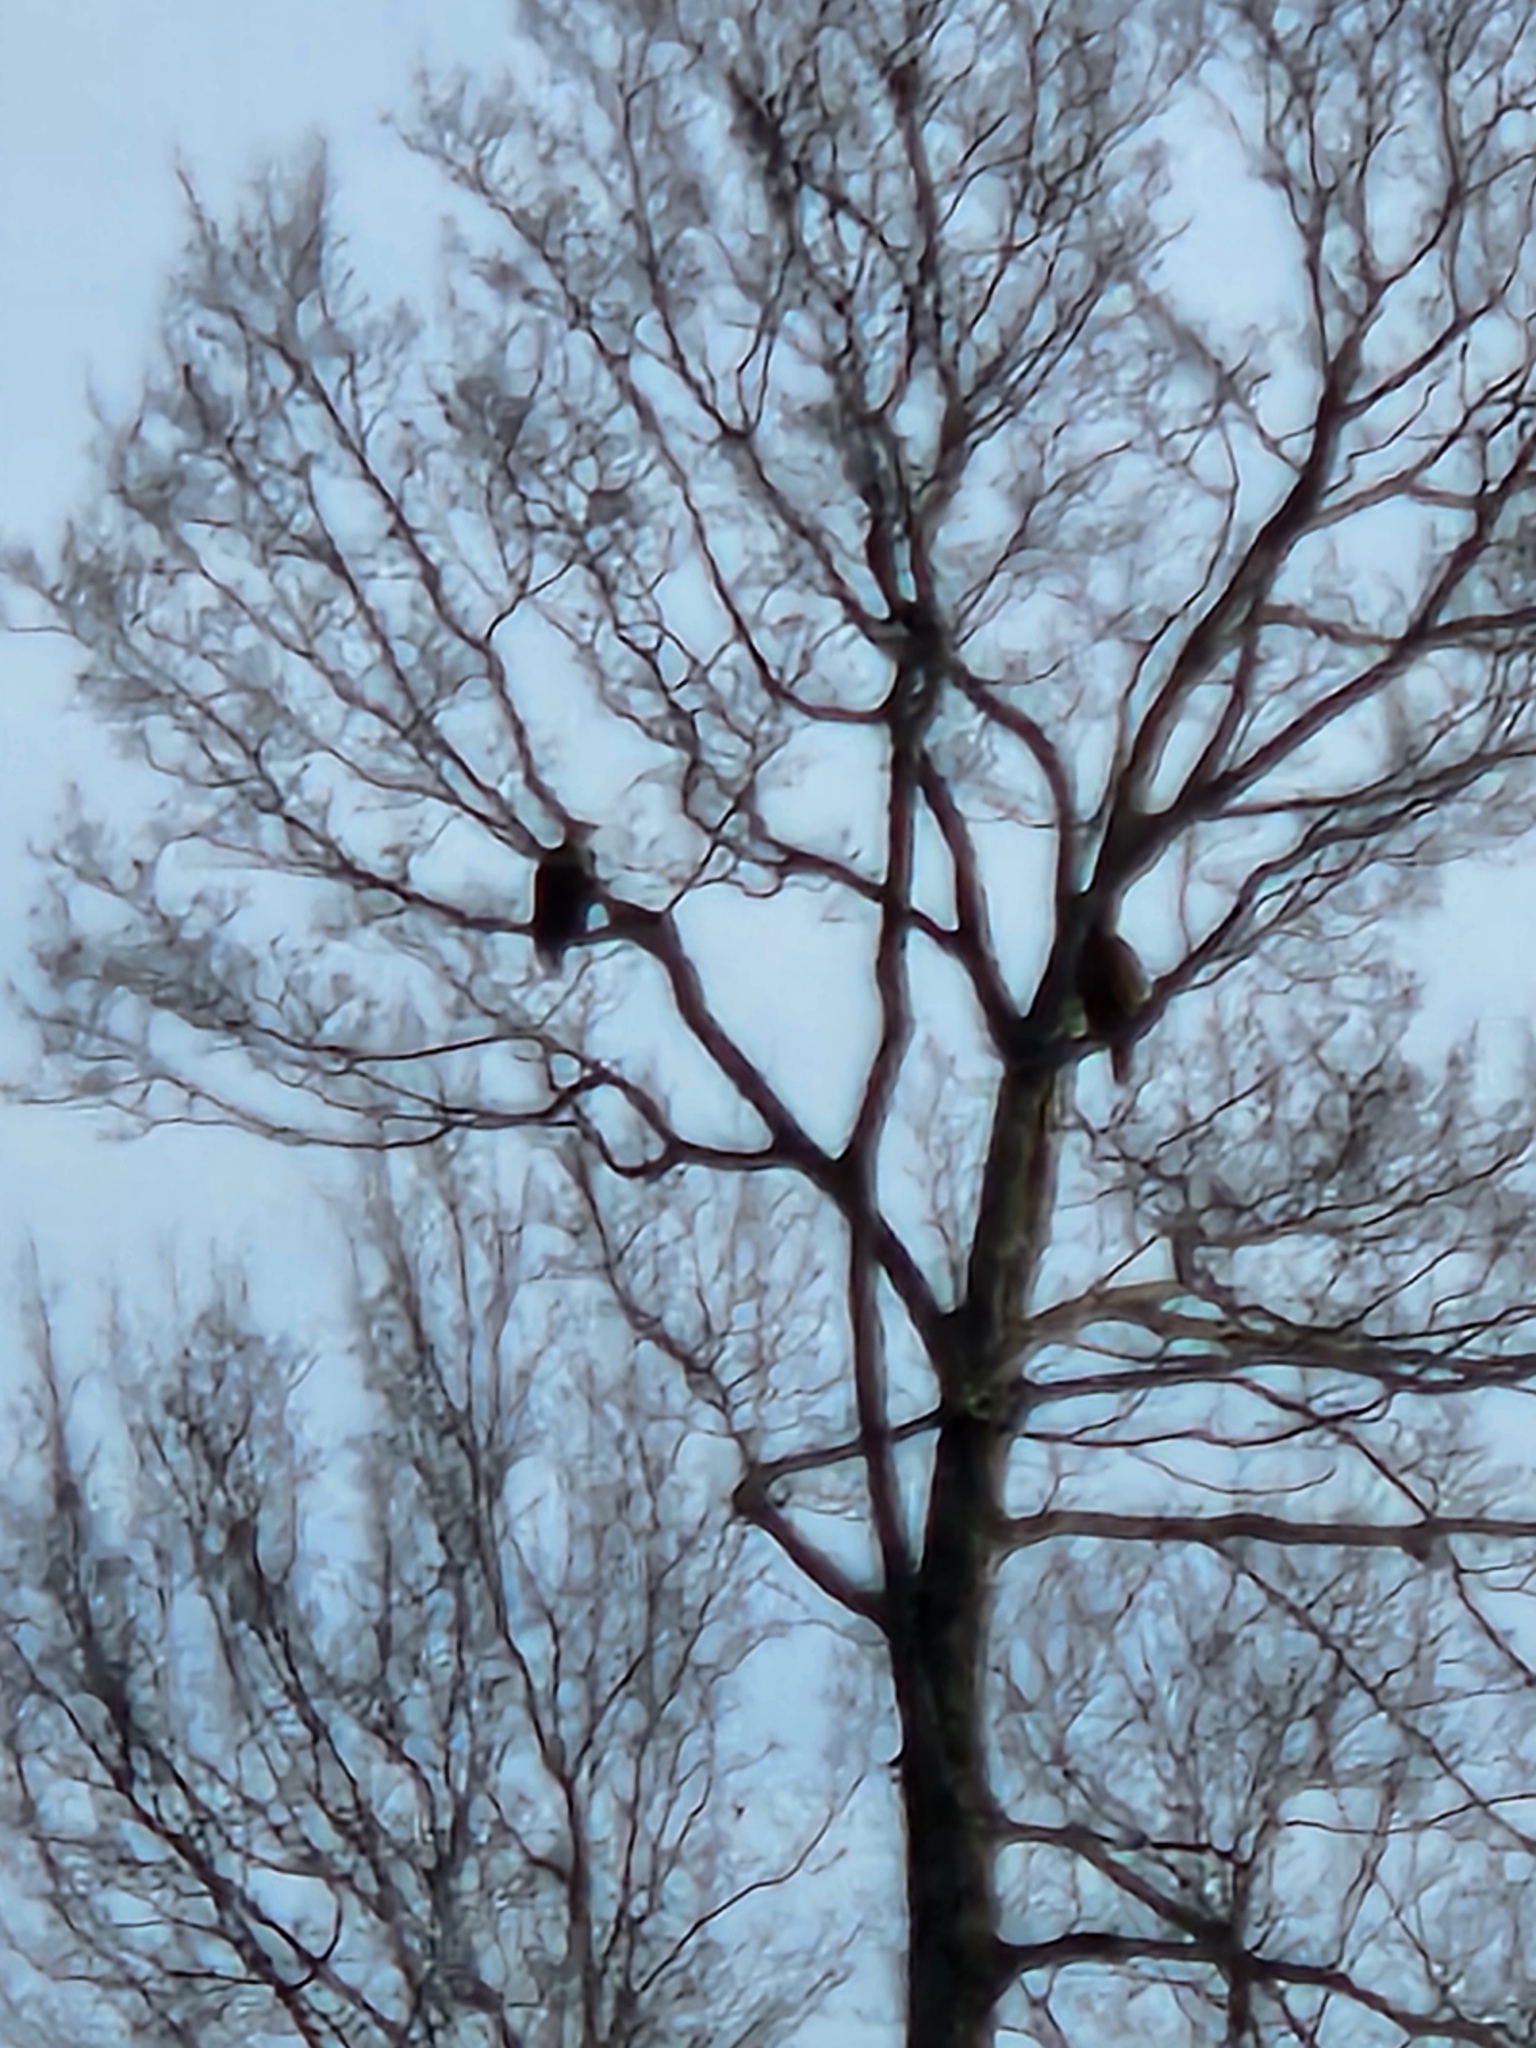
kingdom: Animalia
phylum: Chordata
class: Aves
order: Accipitriformes
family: Accipitridae
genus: Haliaeetus
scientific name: Haliaeetus leucocephalus
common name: Bald eagle
